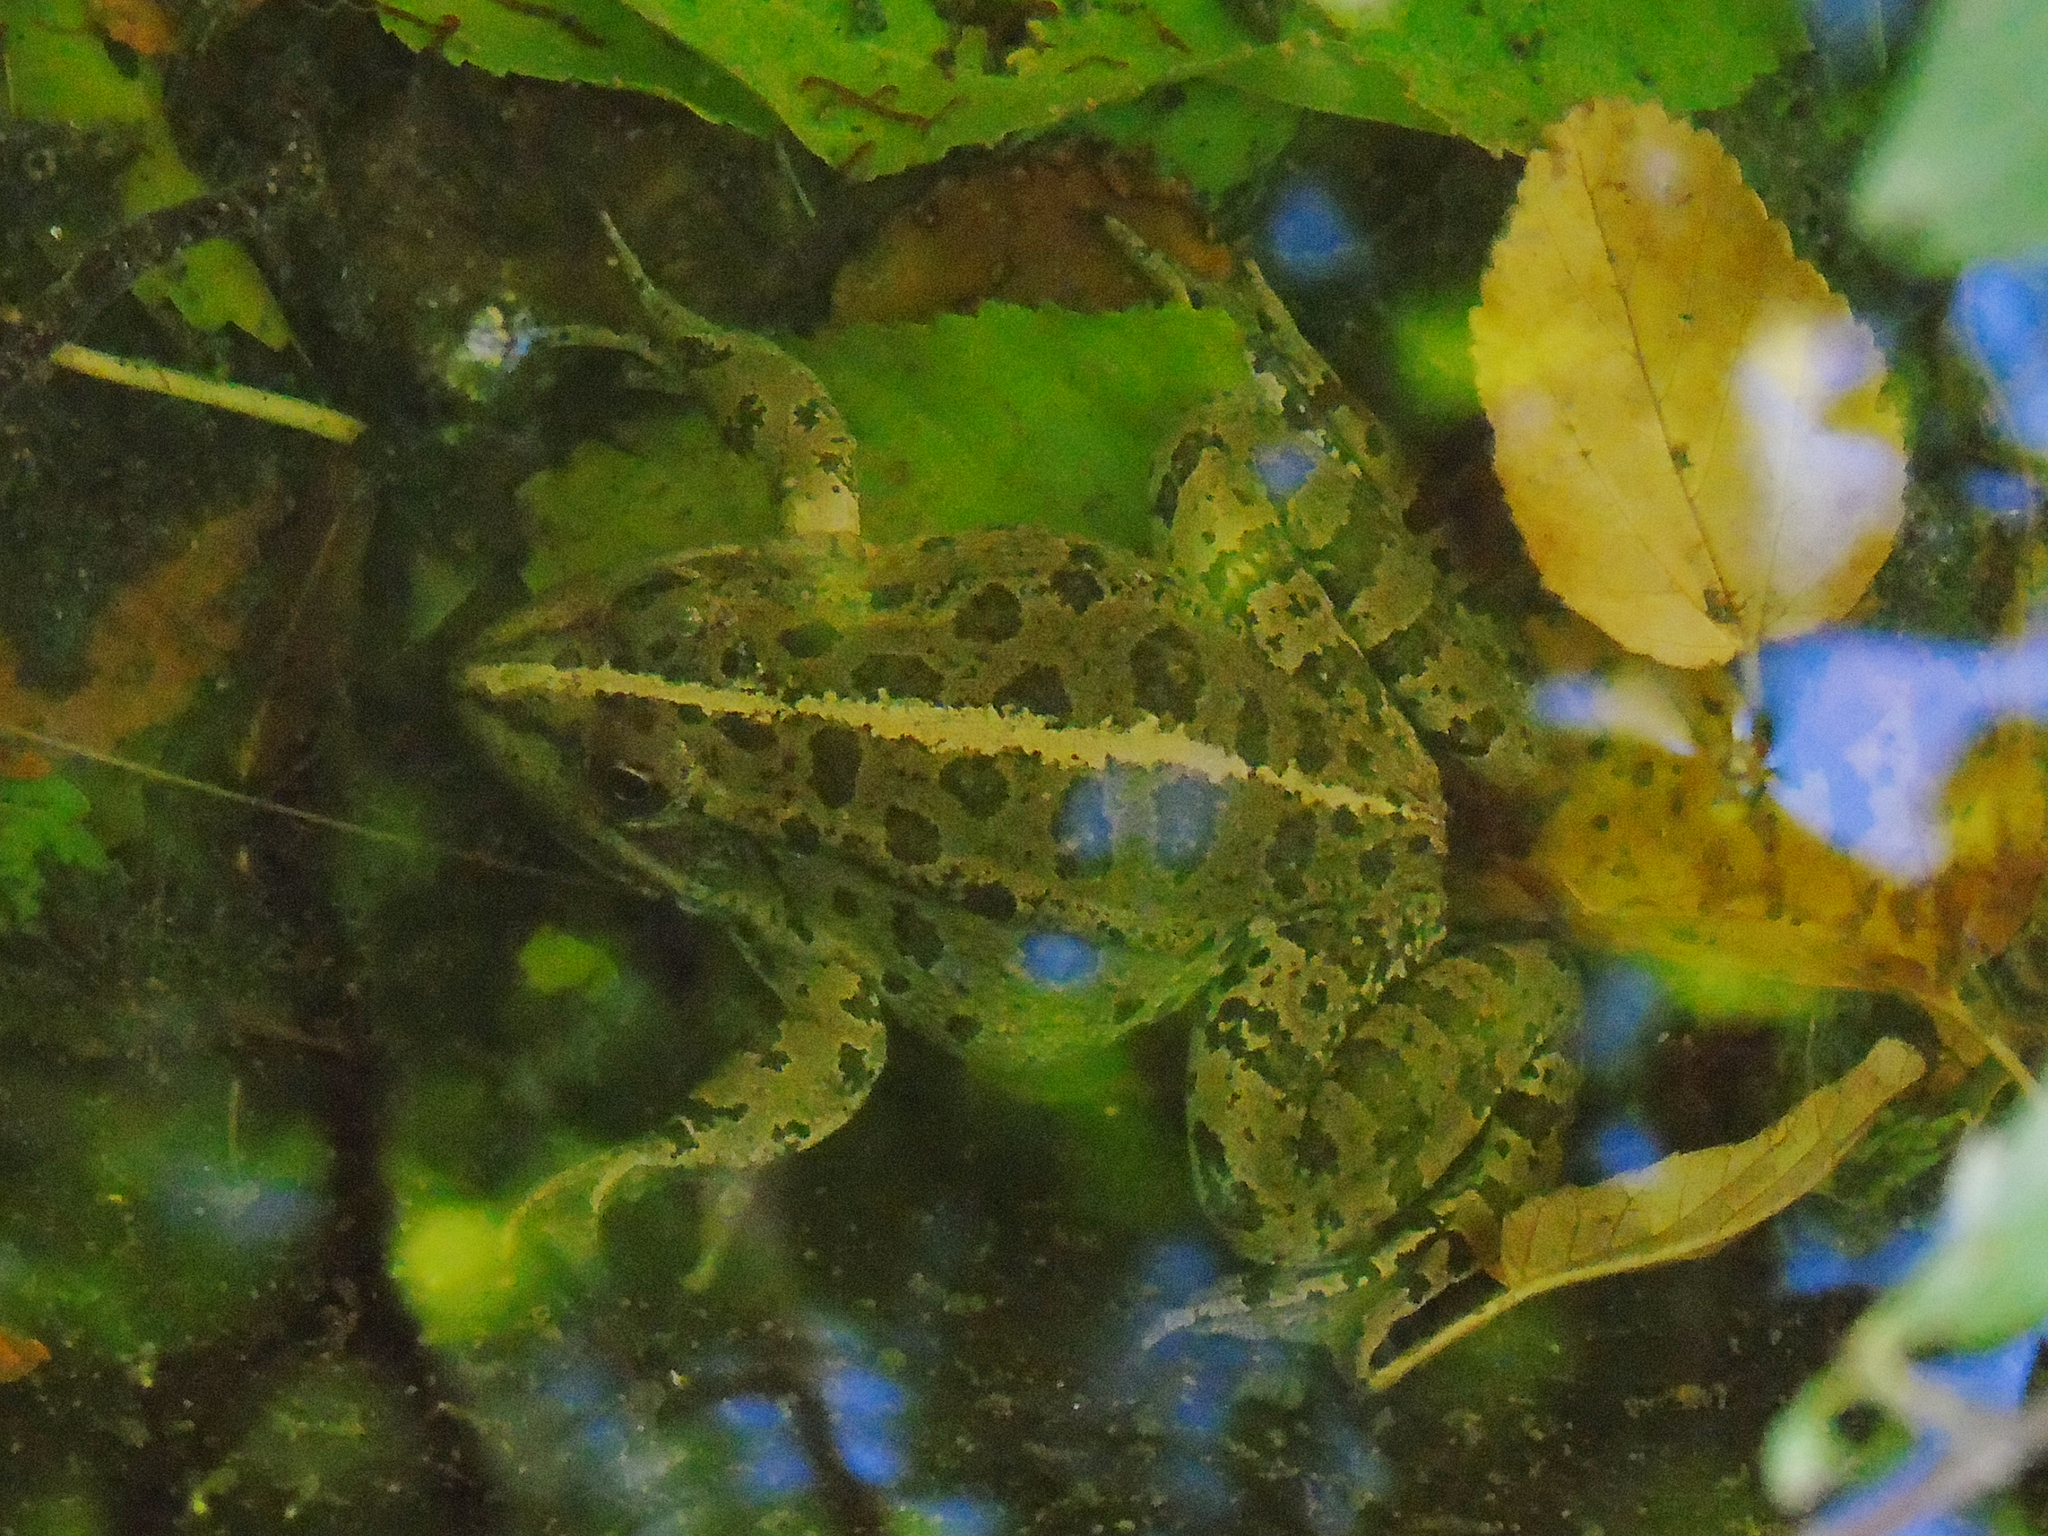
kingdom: Animalia
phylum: Chordata
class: Amphibia
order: Anura
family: Ranidae
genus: Pelophylax
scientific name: Pelophylax ridibundus
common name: Marsh frog
